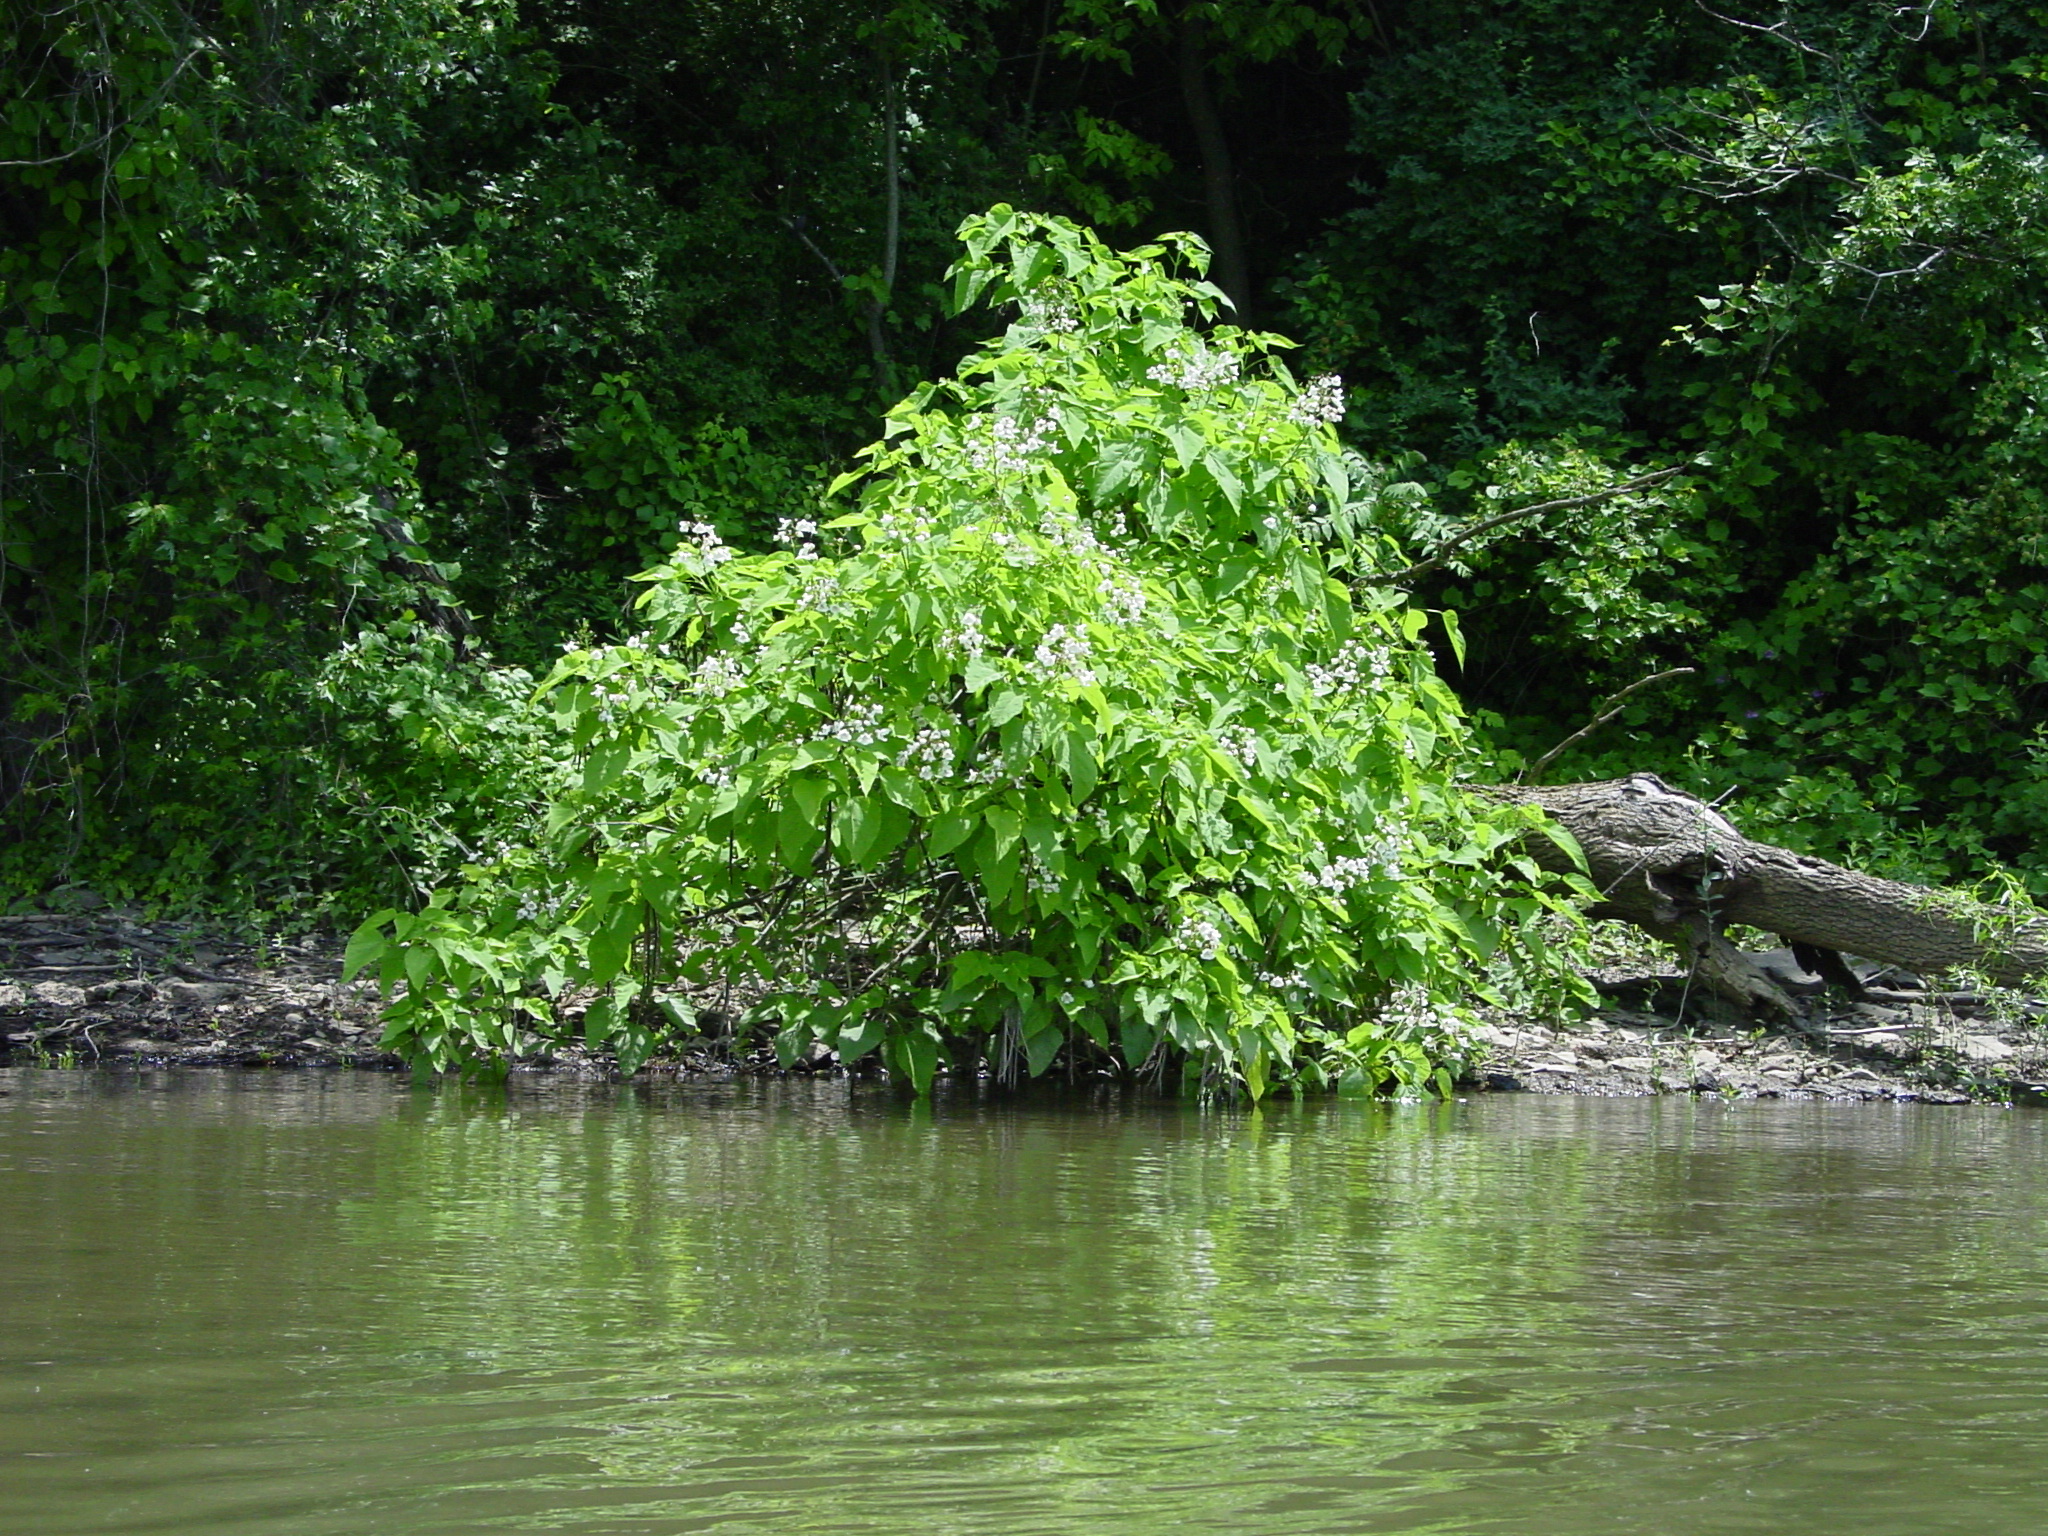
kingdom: Plantae
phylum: Tracheophyta
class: Magnoliopsida
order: Lamiales
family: Bignoniaceae
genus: Catalpa
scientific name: Catalpa speciosa
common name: Northern catalpa
